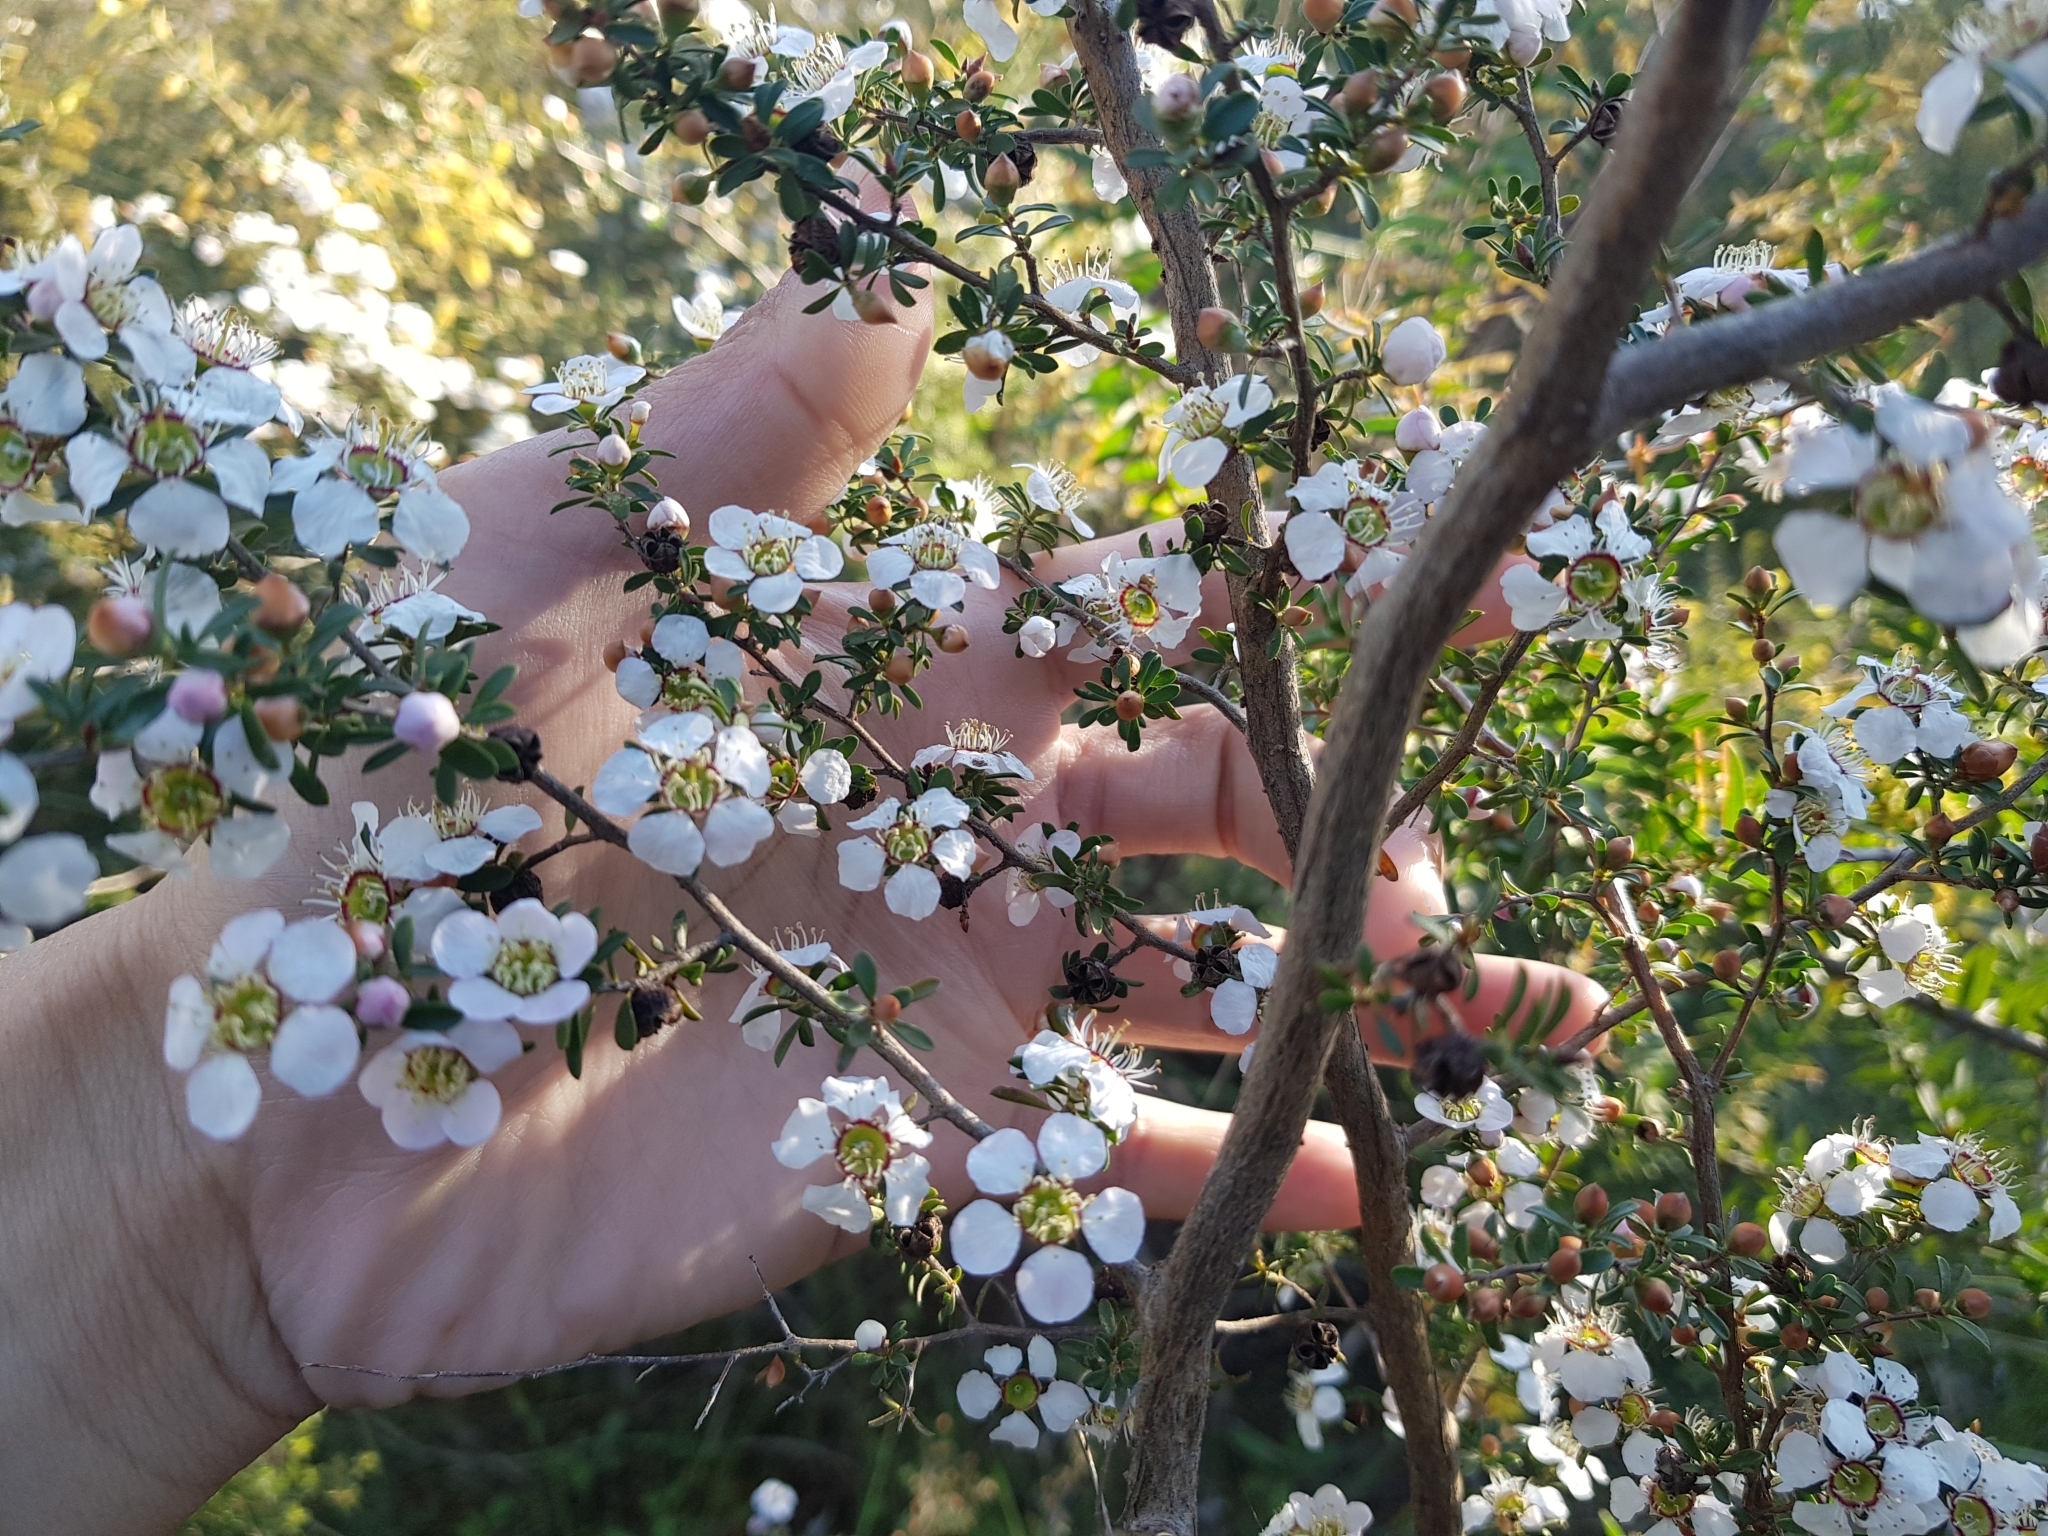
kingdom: Plantae
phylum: Tracheophyta
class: Magnoliopsida
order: Myrtales
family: Myrtaceae
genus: Leptospermum
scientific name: Leptospermum myrsinoides
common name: Heath teatree
